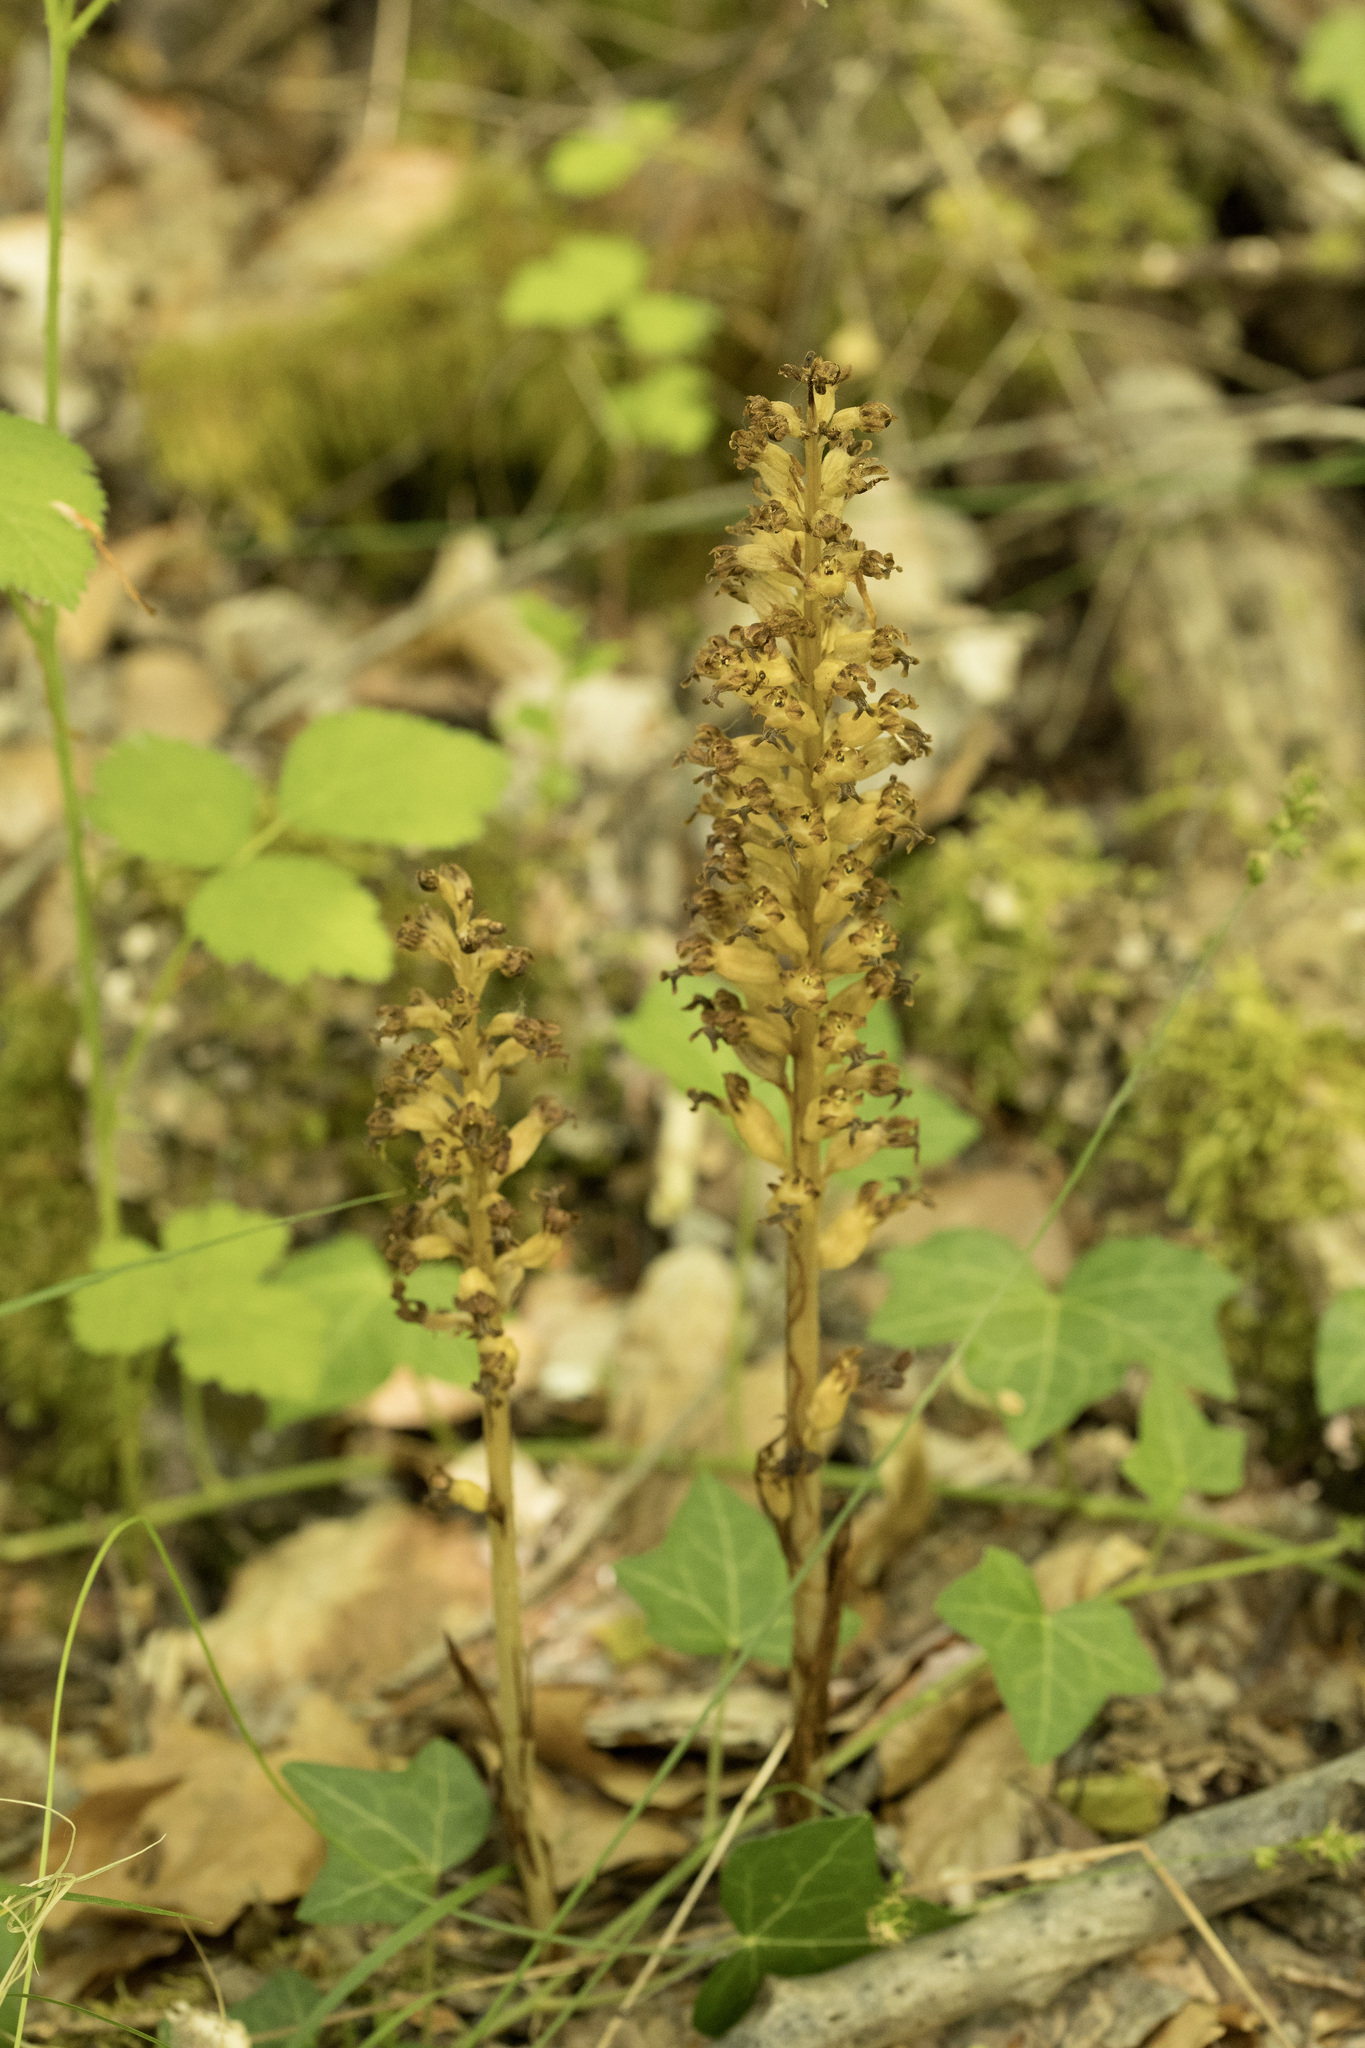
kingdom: Plantae
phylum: Tracheophyta
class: Liliopsida
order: Asparagales
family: Orchidaceae
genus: Neottia
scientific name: Neottia nidus-avis
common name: Bird's-nest orchid
